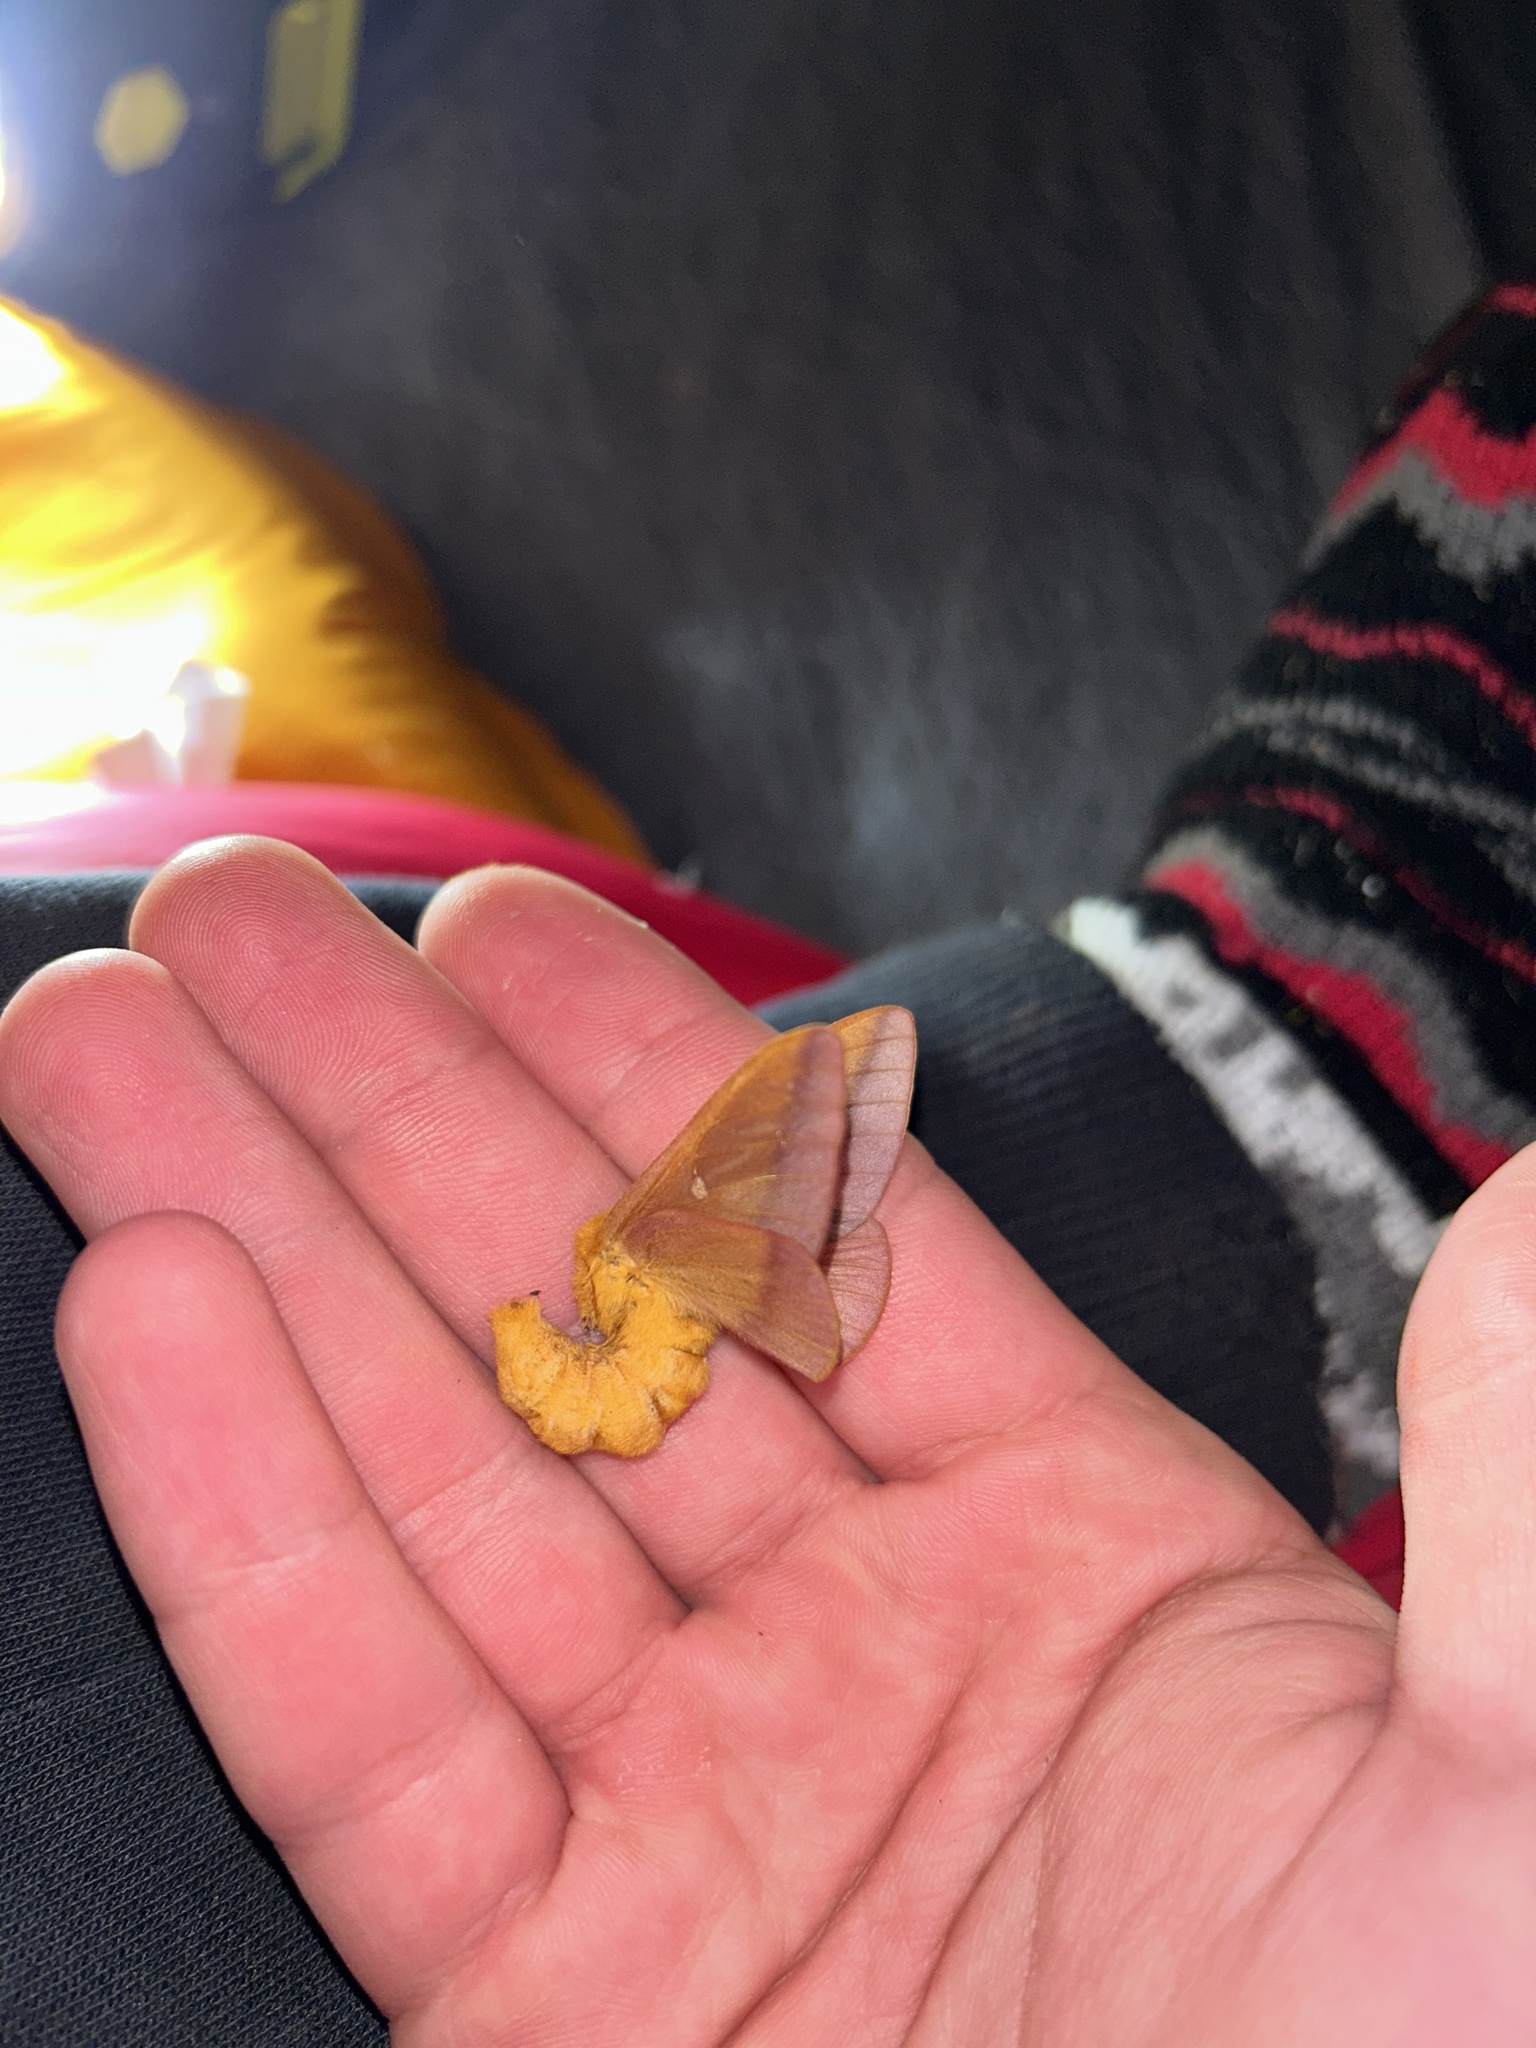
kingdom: Animalia
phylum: Arthropoda
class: Insecta
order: Lepidoptera
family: Saturniidae
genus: Anisota
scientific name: Anisota virginiensis
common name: Pink striped oakworm moth
